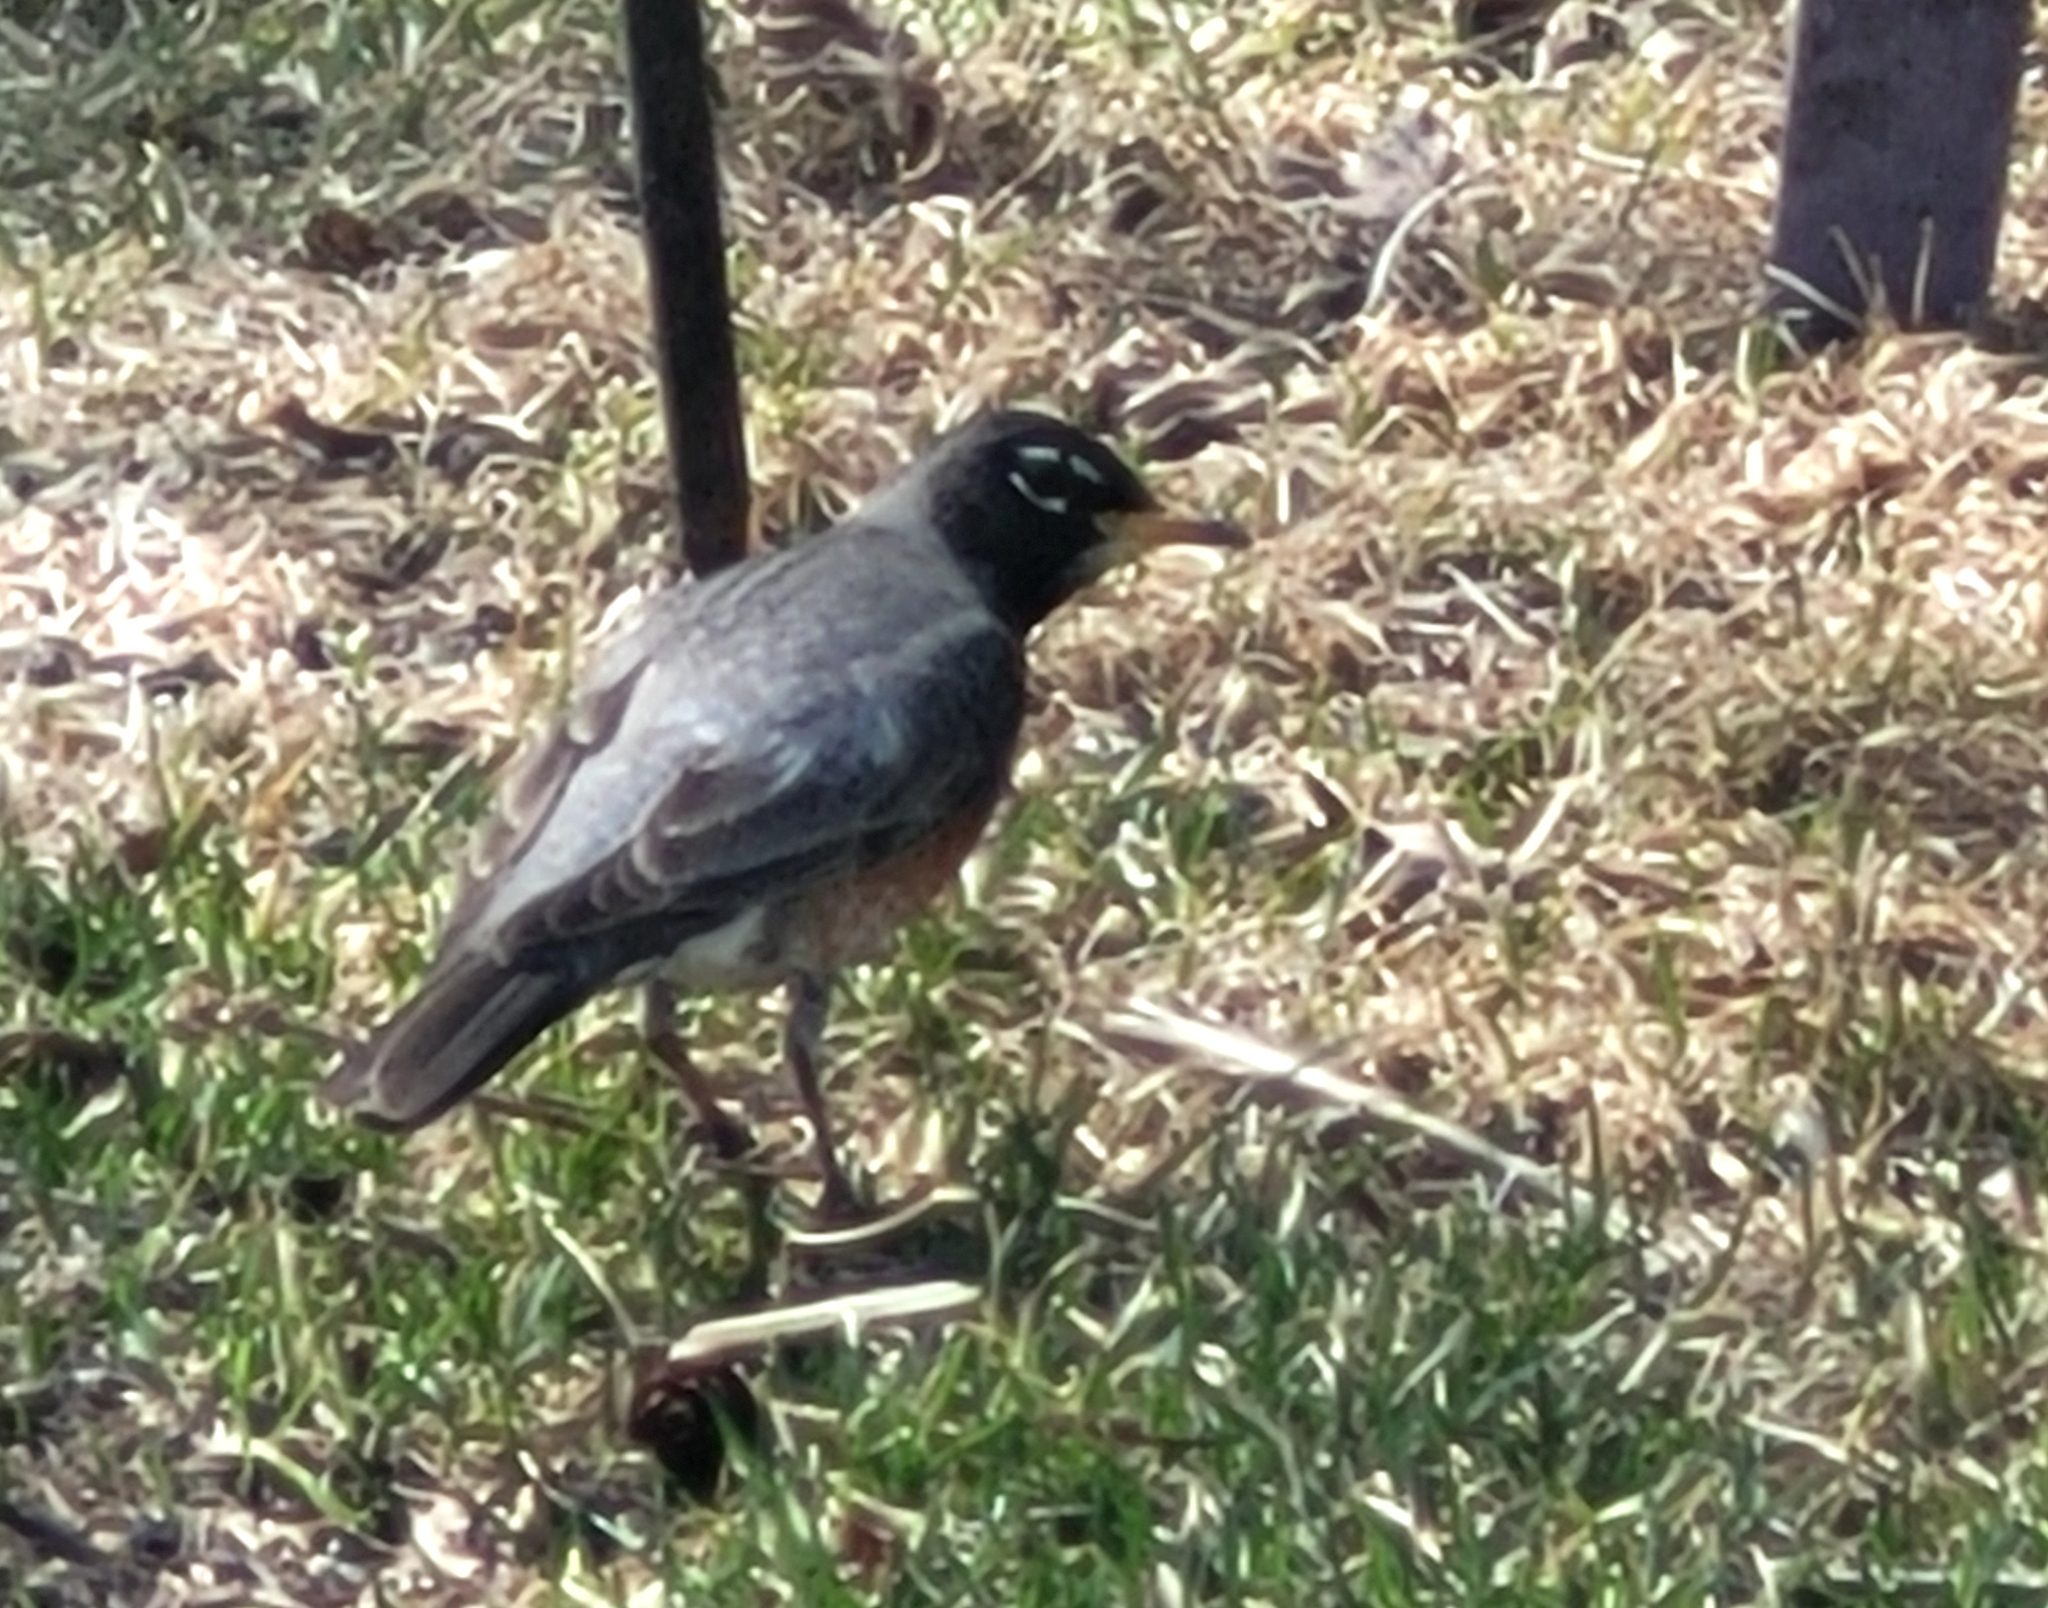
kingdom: Animalia
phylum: Chordata
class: Aves
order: Passeriformes
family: Turdidae
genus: Turdus
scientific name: Turdus migratorius
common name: American robin
